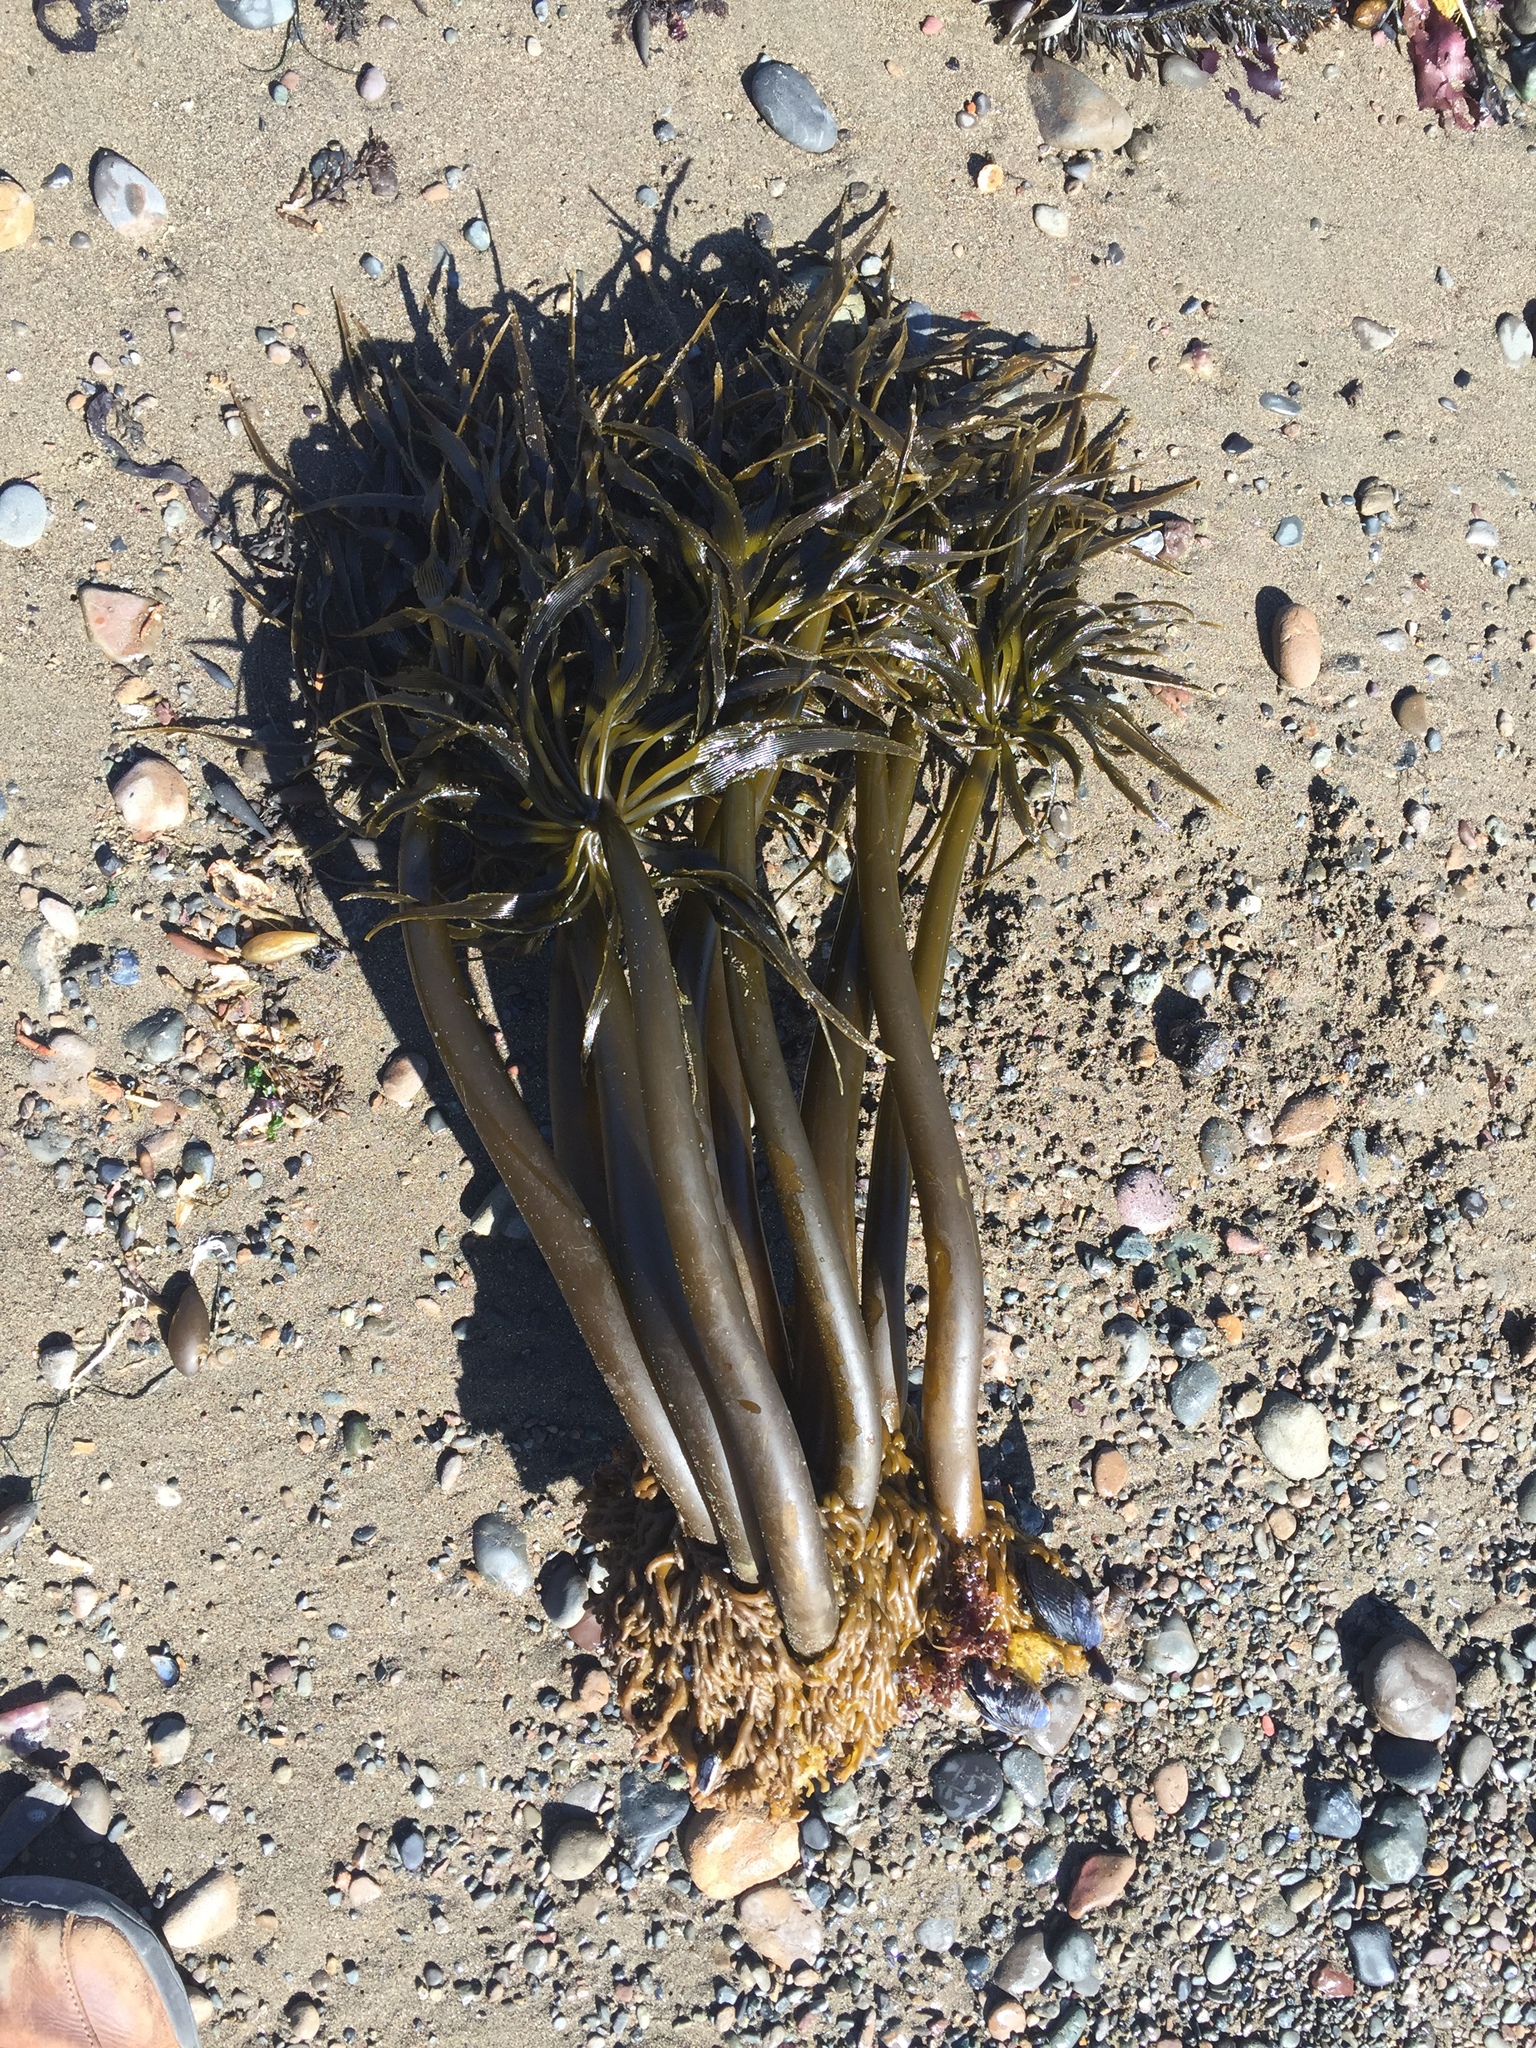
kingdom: Chromista
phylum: Ochrophyta
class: Phaeophyceae
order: Laminariales
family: Laminariaceae
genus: Postelsia
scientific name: Postelsia palmiformis
